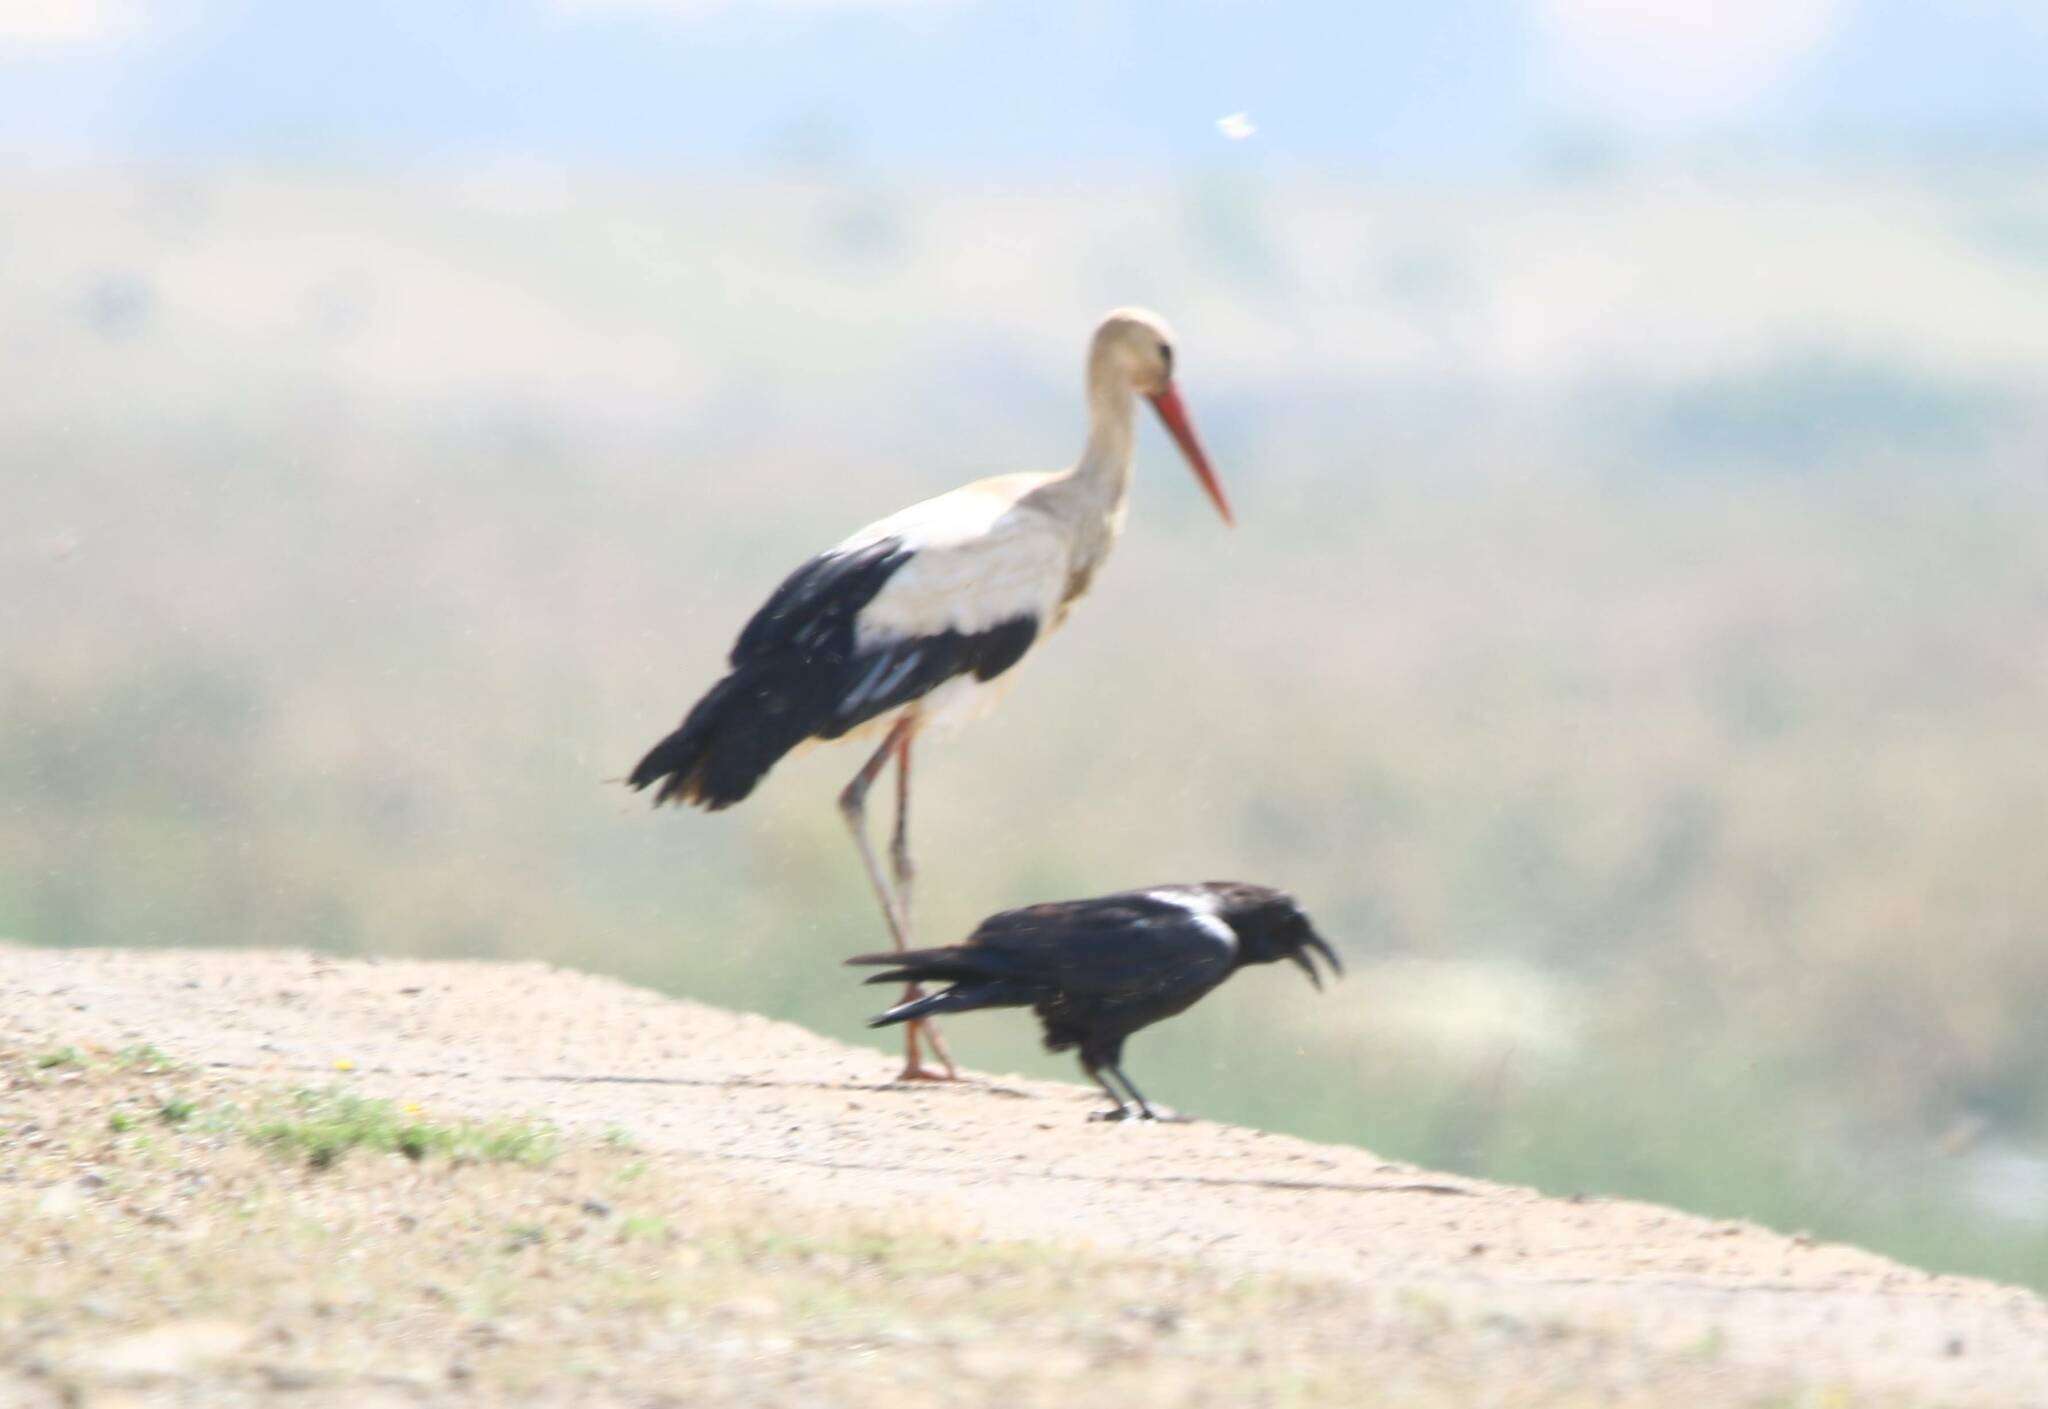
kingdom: Animalia
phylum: Chordata
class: Aves
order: Ciconiiformes
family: Ciconiidae
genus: Ciconia
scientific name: Ciconia ciconia
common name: White stork
